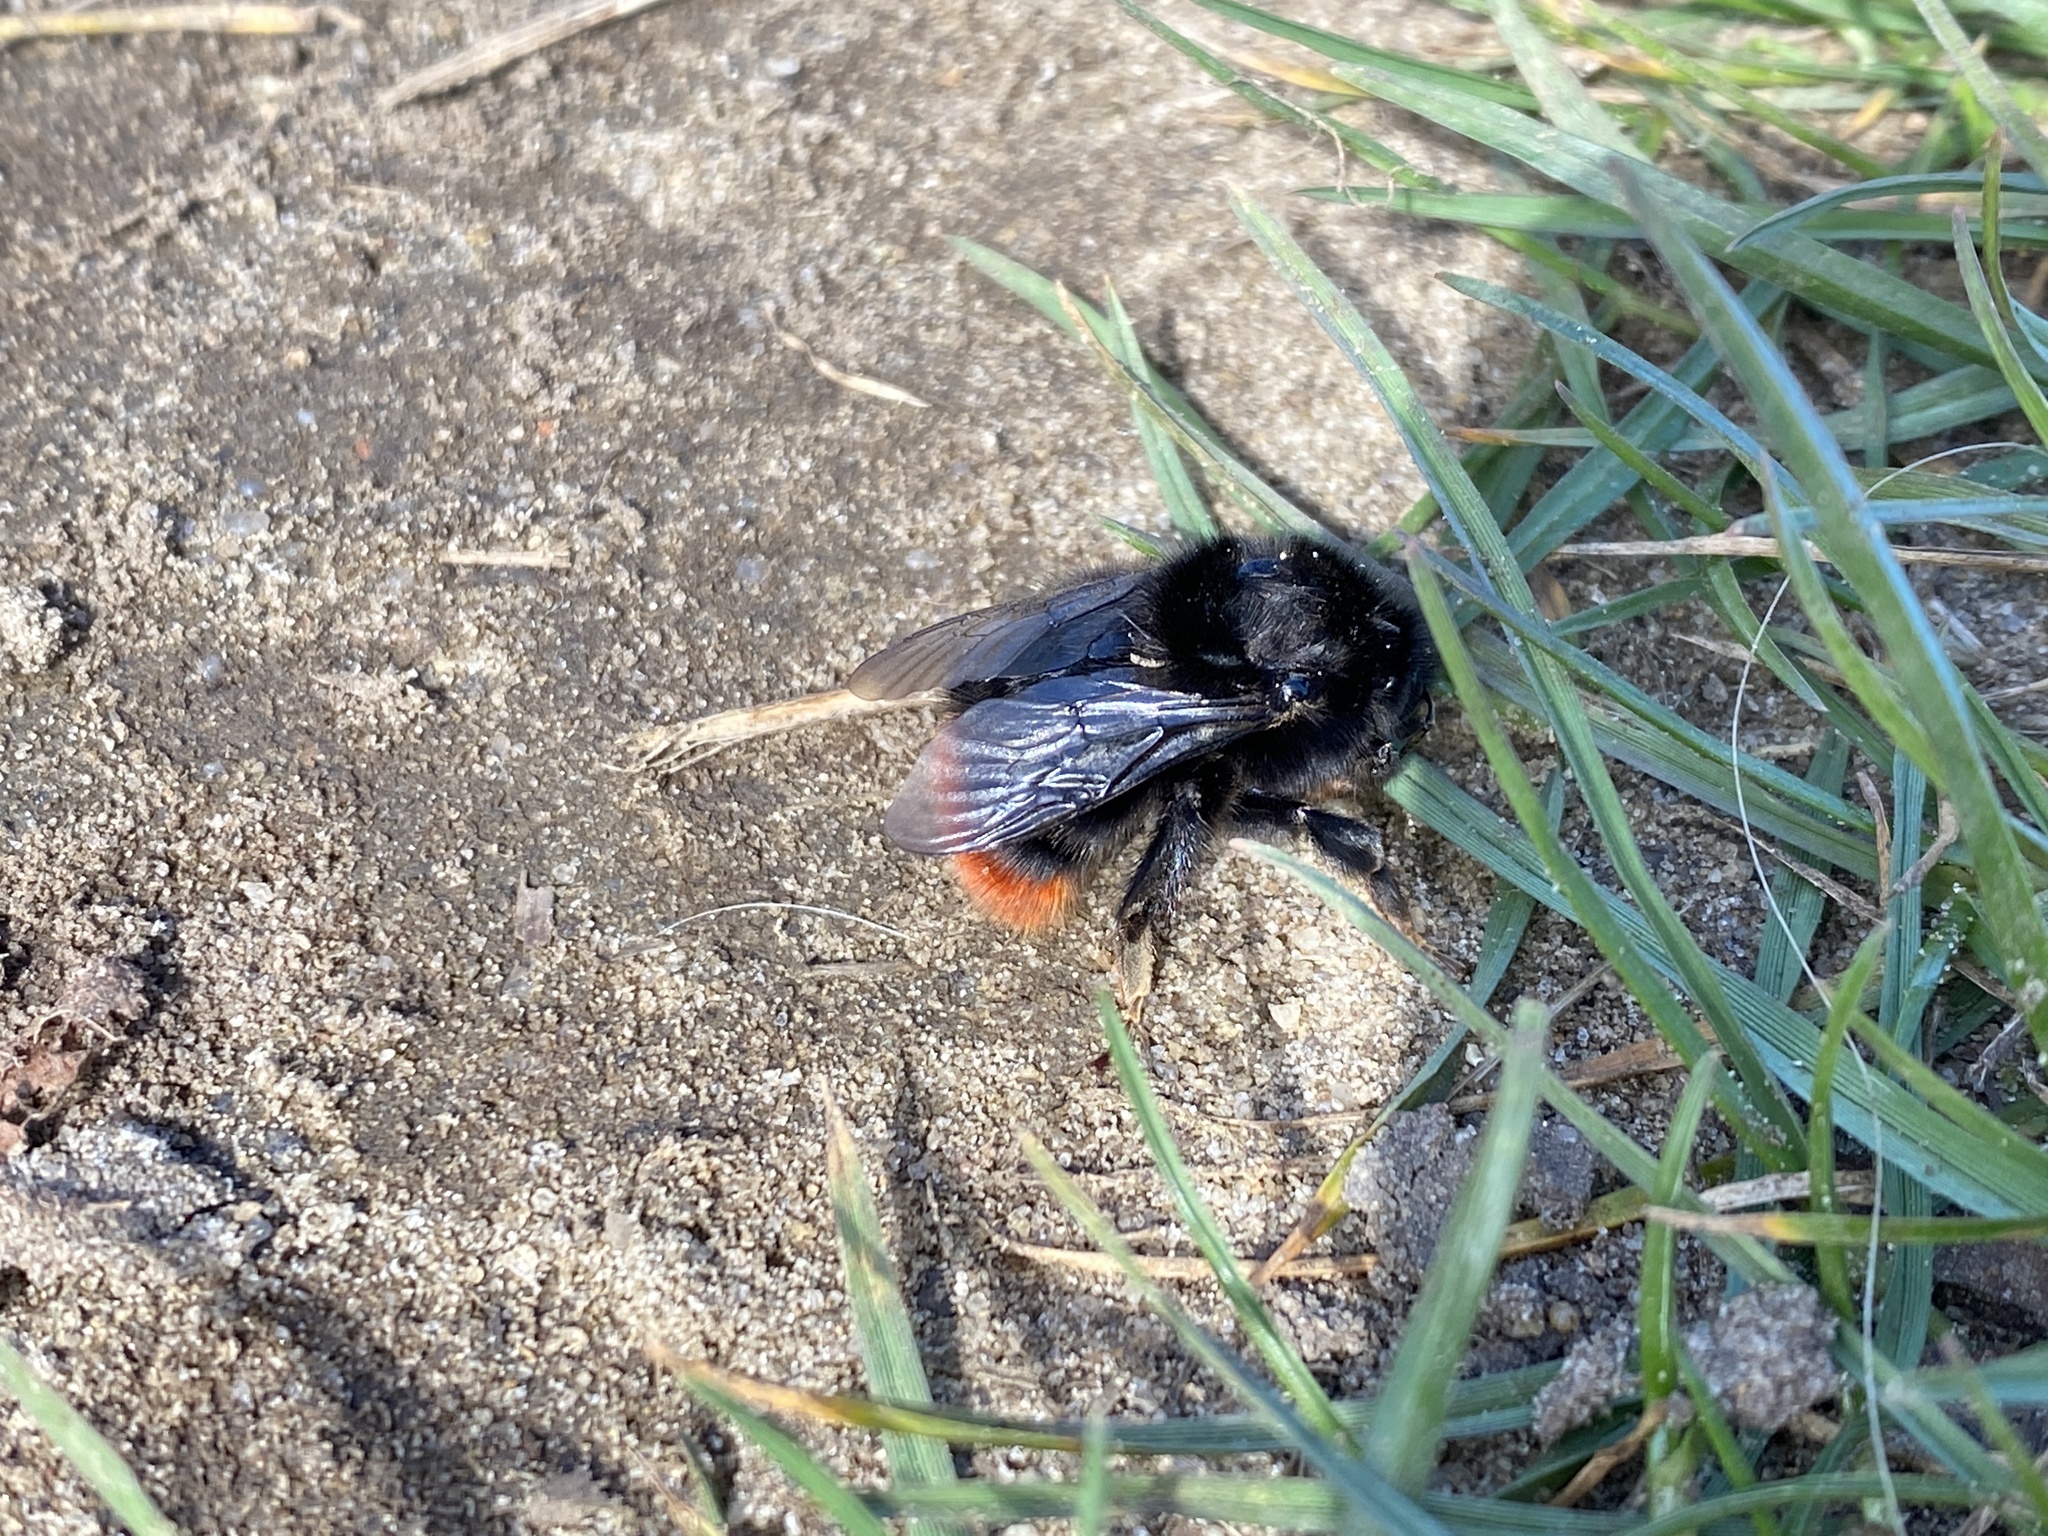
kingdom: Animalia
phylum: Arthropoda
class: Insecta
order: Hymenoptera
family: Apidae
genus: Bombus
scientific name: Bombus lapidarius
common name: Large red-tailed humble-bee
